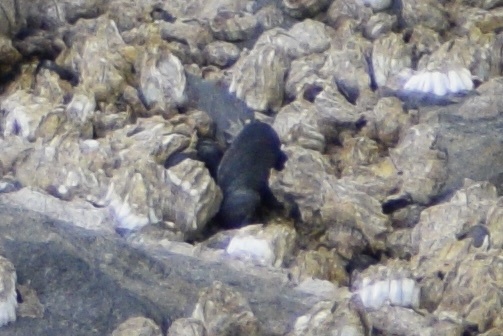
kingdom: Animalia
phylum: Mollusca
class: Bivalvia
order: Mytilida
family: Mytilidae
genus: Mytilus
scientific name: Mytilus chilensis
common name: Chilean mussel
